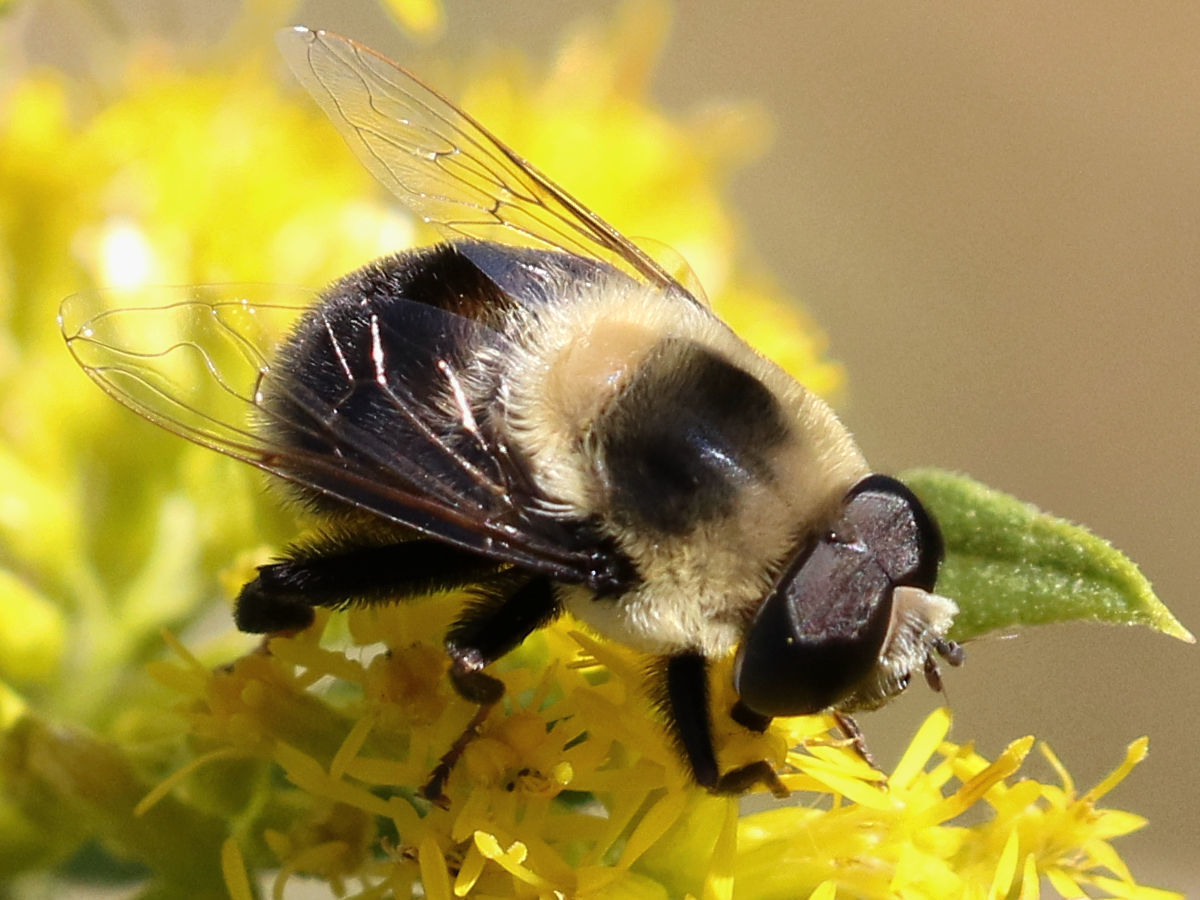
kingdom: Animalia
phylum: Arthropoda
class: Insecta
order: Diptera
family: Syrphidae
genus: Eristalis
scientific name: Eristalis flavipes
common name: Orange-legged drone fly
